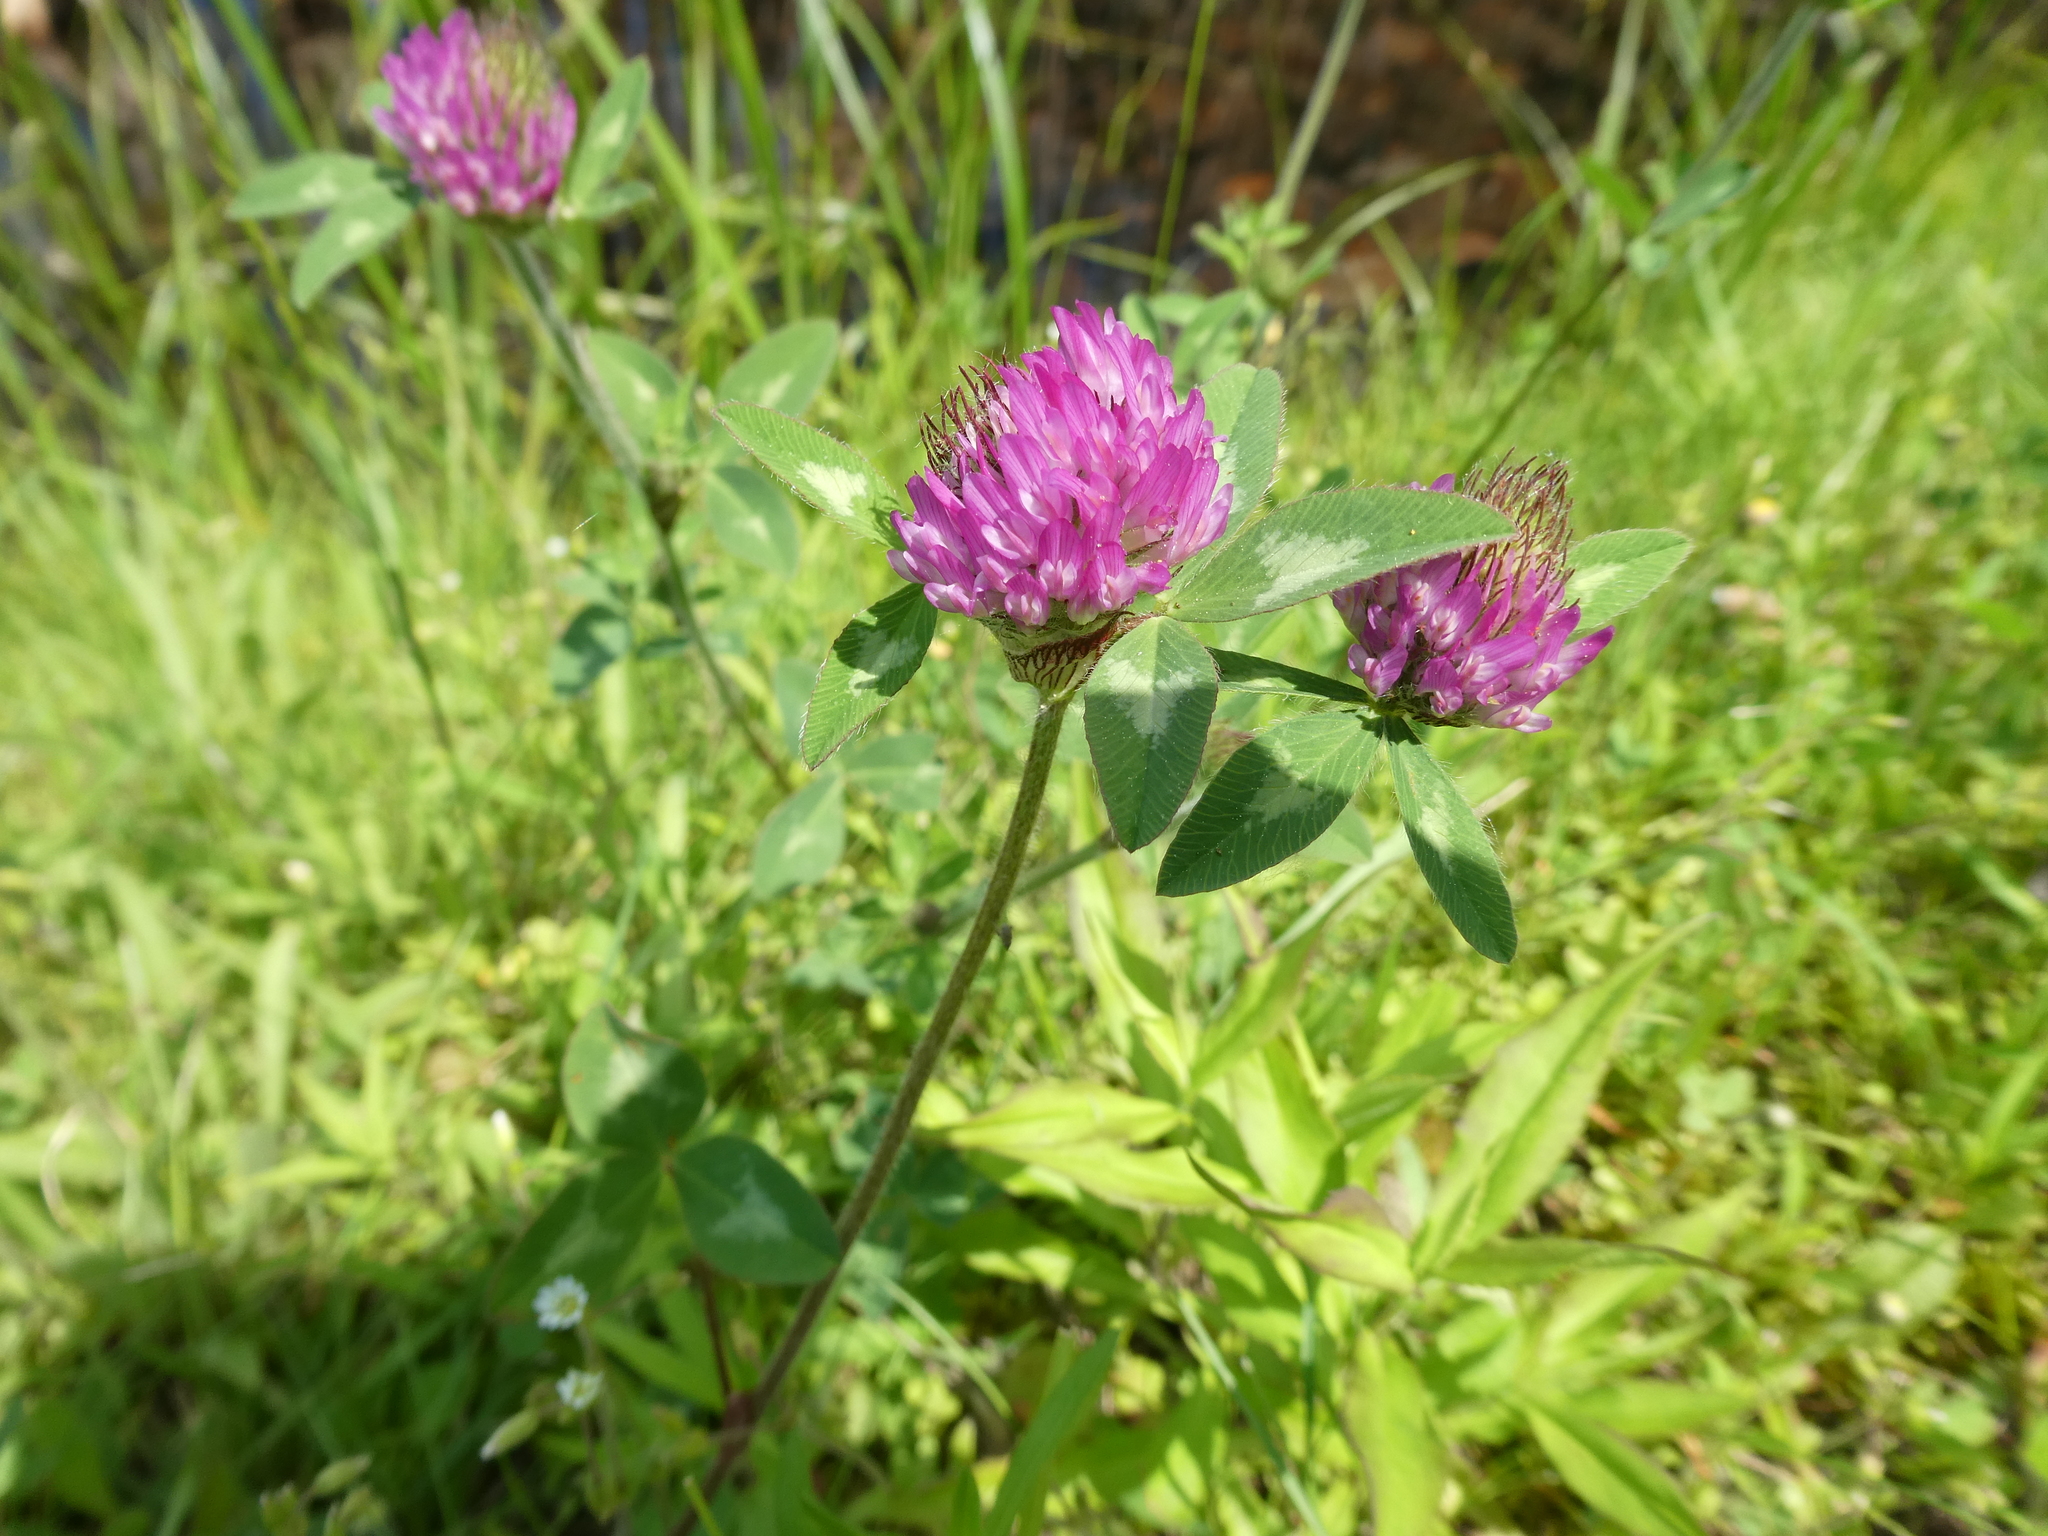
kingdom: Plantae
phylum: Tracheophyta
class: Magnoliopsida
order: Fabales
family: Fabaceae
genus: Trifolium
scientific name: Trifolium pratense
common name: Red clover
